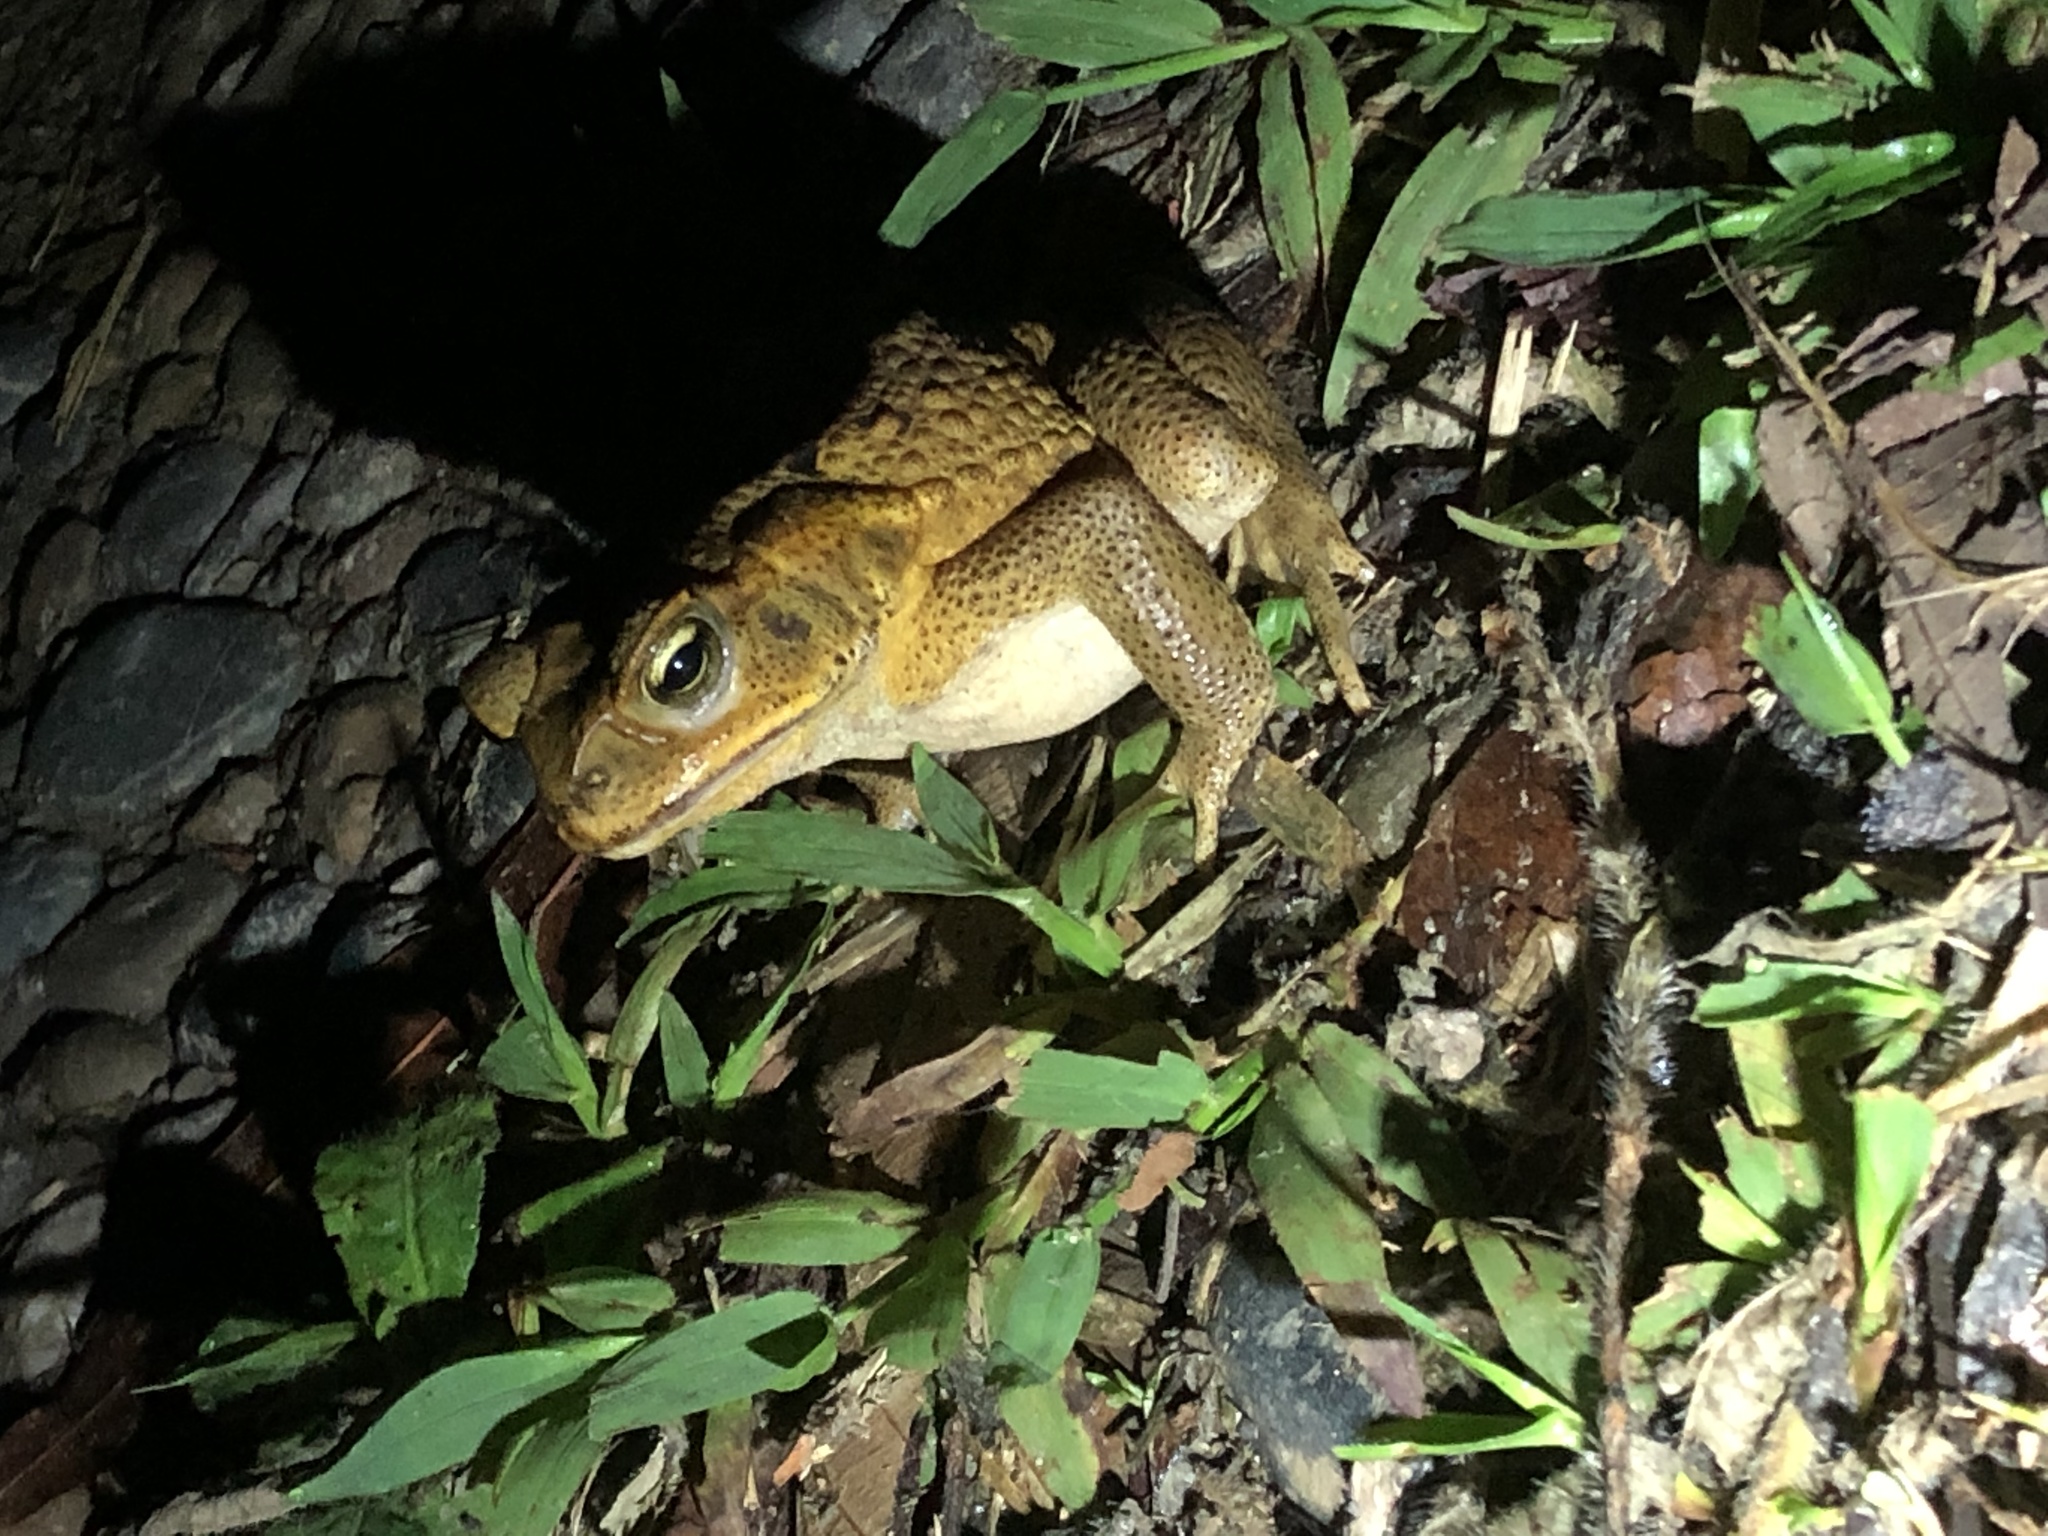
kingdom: Animalia
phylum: Chordata
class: Amphibia
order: Anura
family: Bufonidae
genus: Rhinella
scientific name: Rhinella marina
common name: Cane toad
